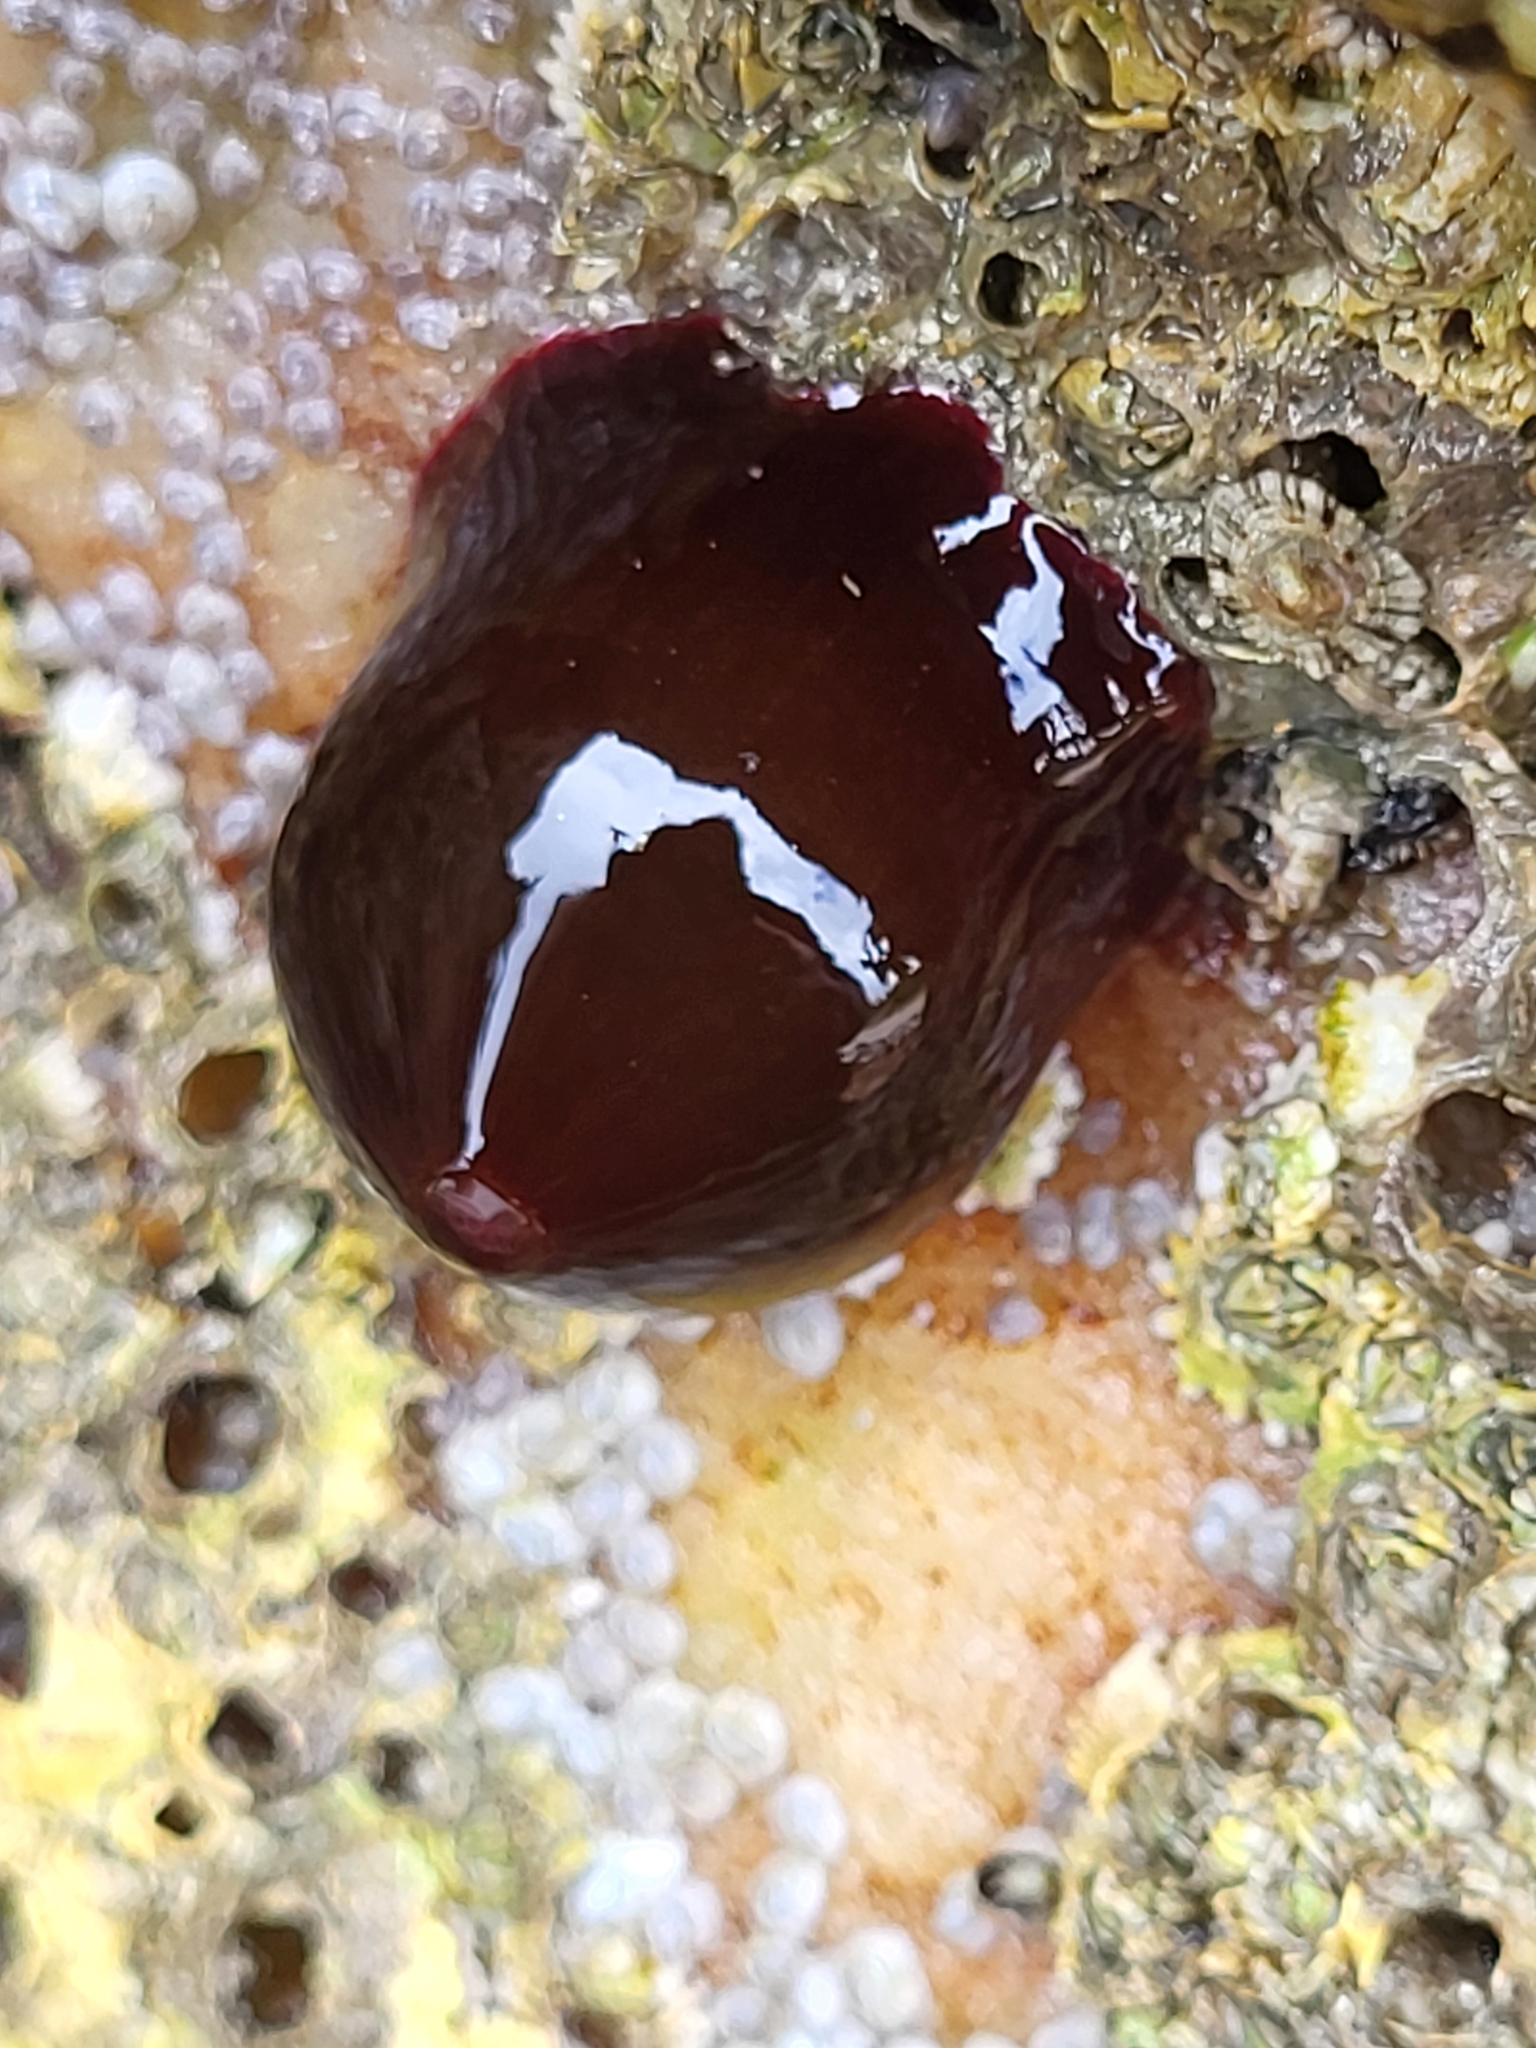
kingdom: Animalia
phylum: Cnidaria
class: Anthozoa
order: Actiniaria
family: Actiniidae
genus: Actinia
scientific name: Actinia equina
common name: Beadlet anemone
